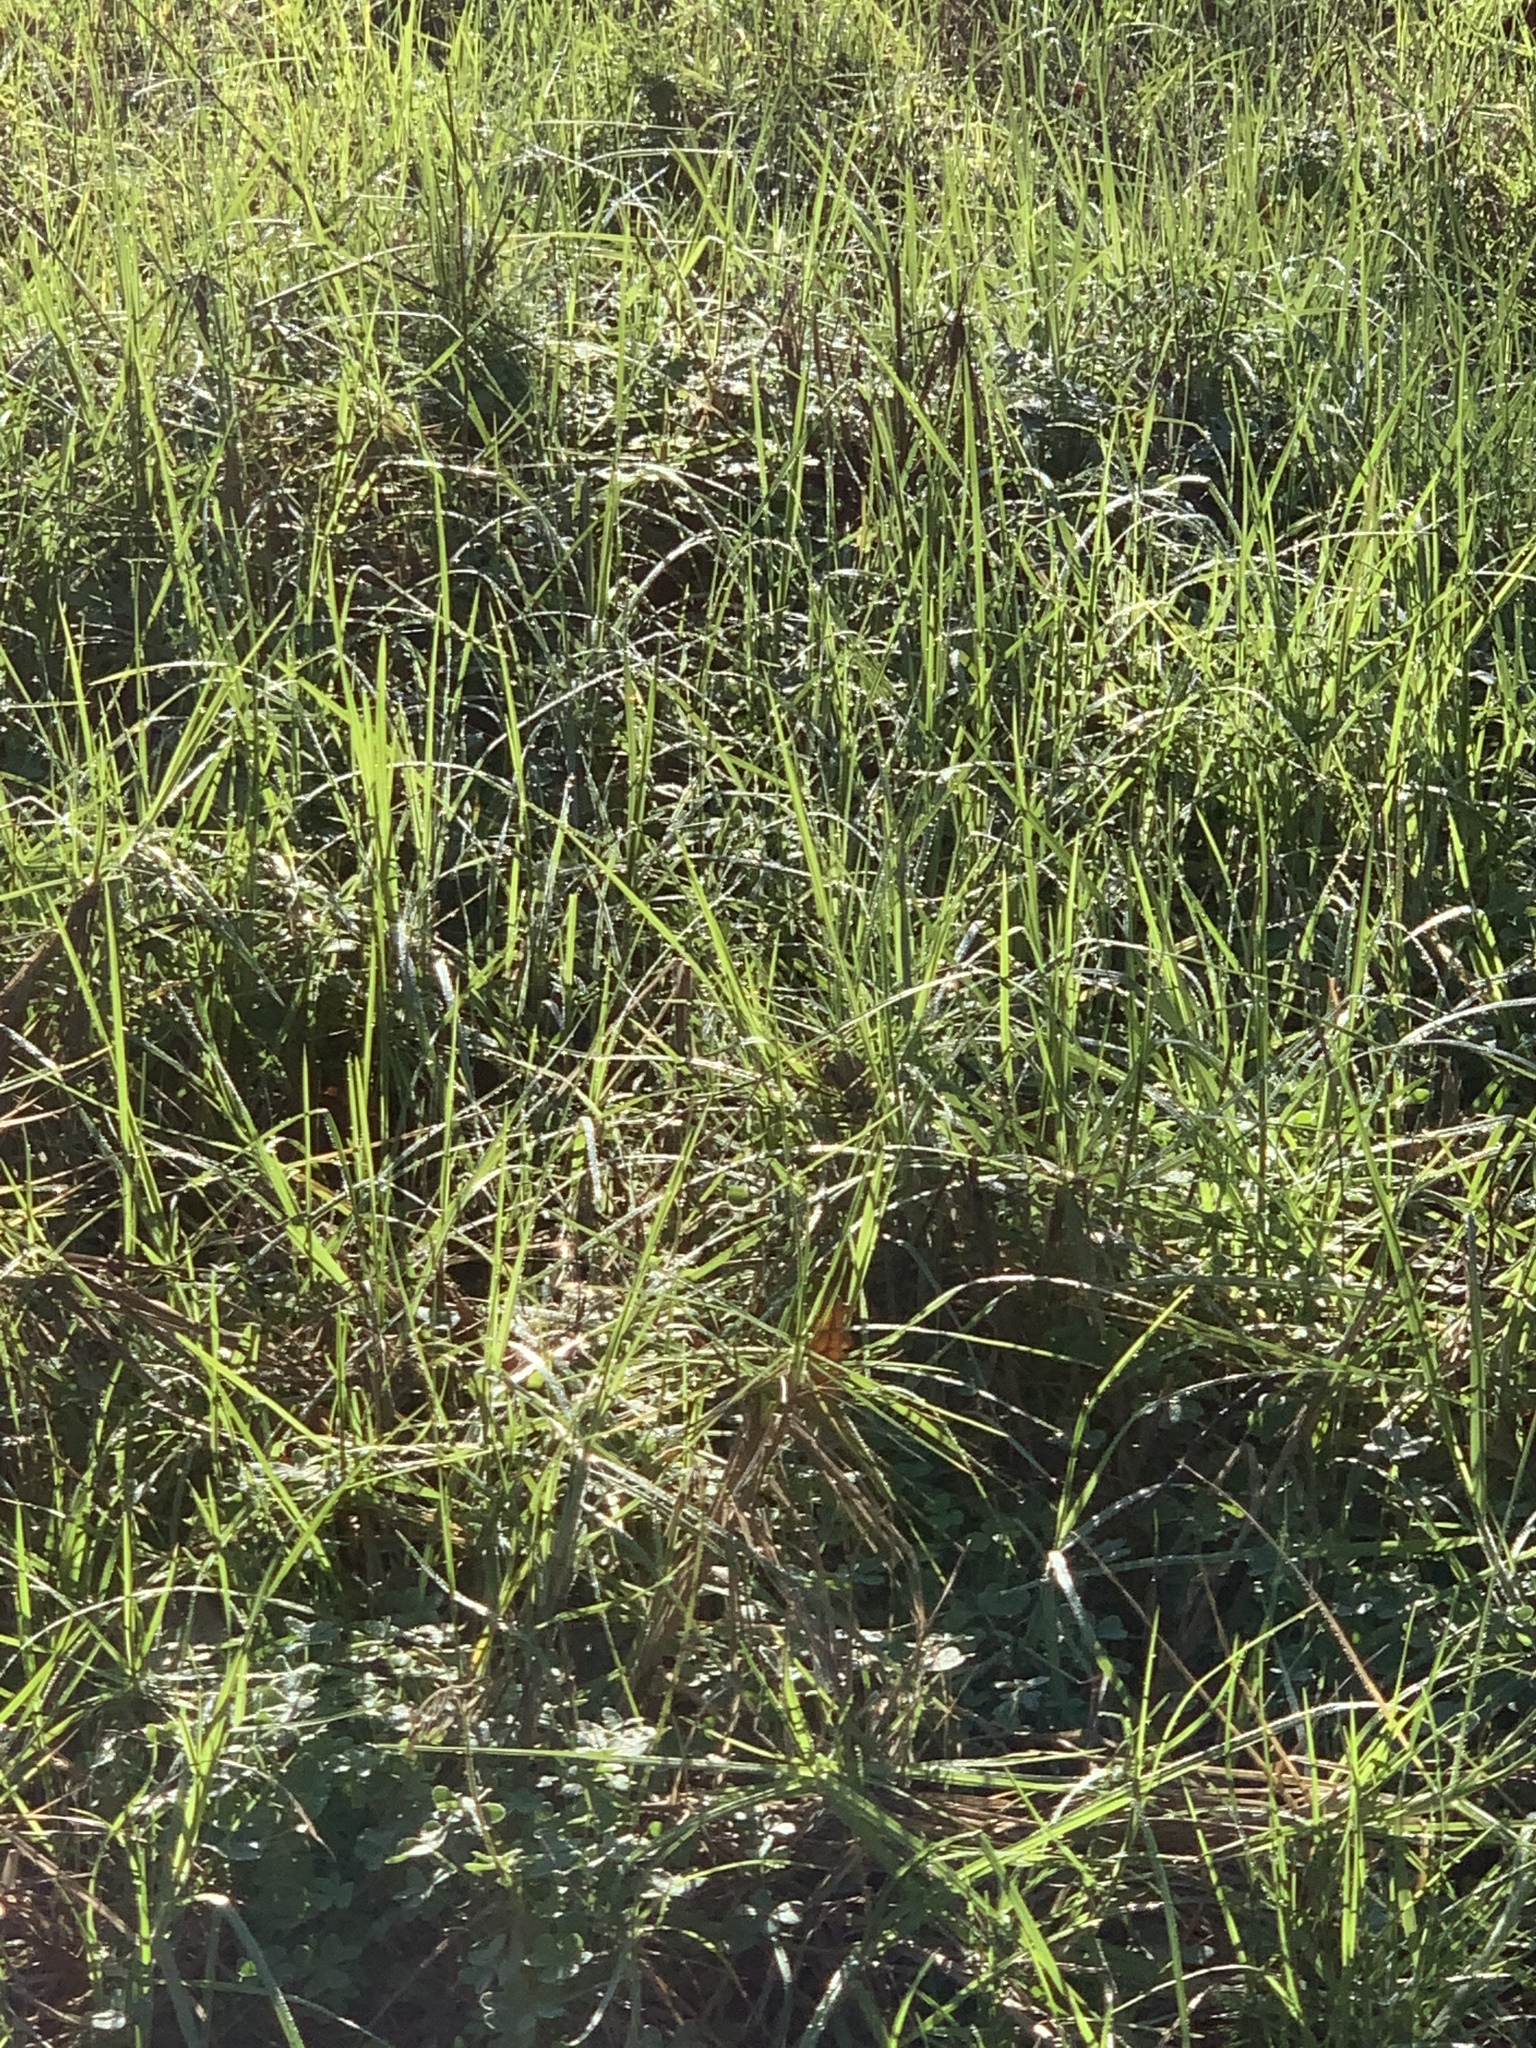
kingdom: Plantae
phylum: Tracheophyta
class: Liliopsida
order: Poales
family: Poaceae
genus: Cenchrus
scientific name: Cenchrus clandestinus
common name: Kikuyugrass
